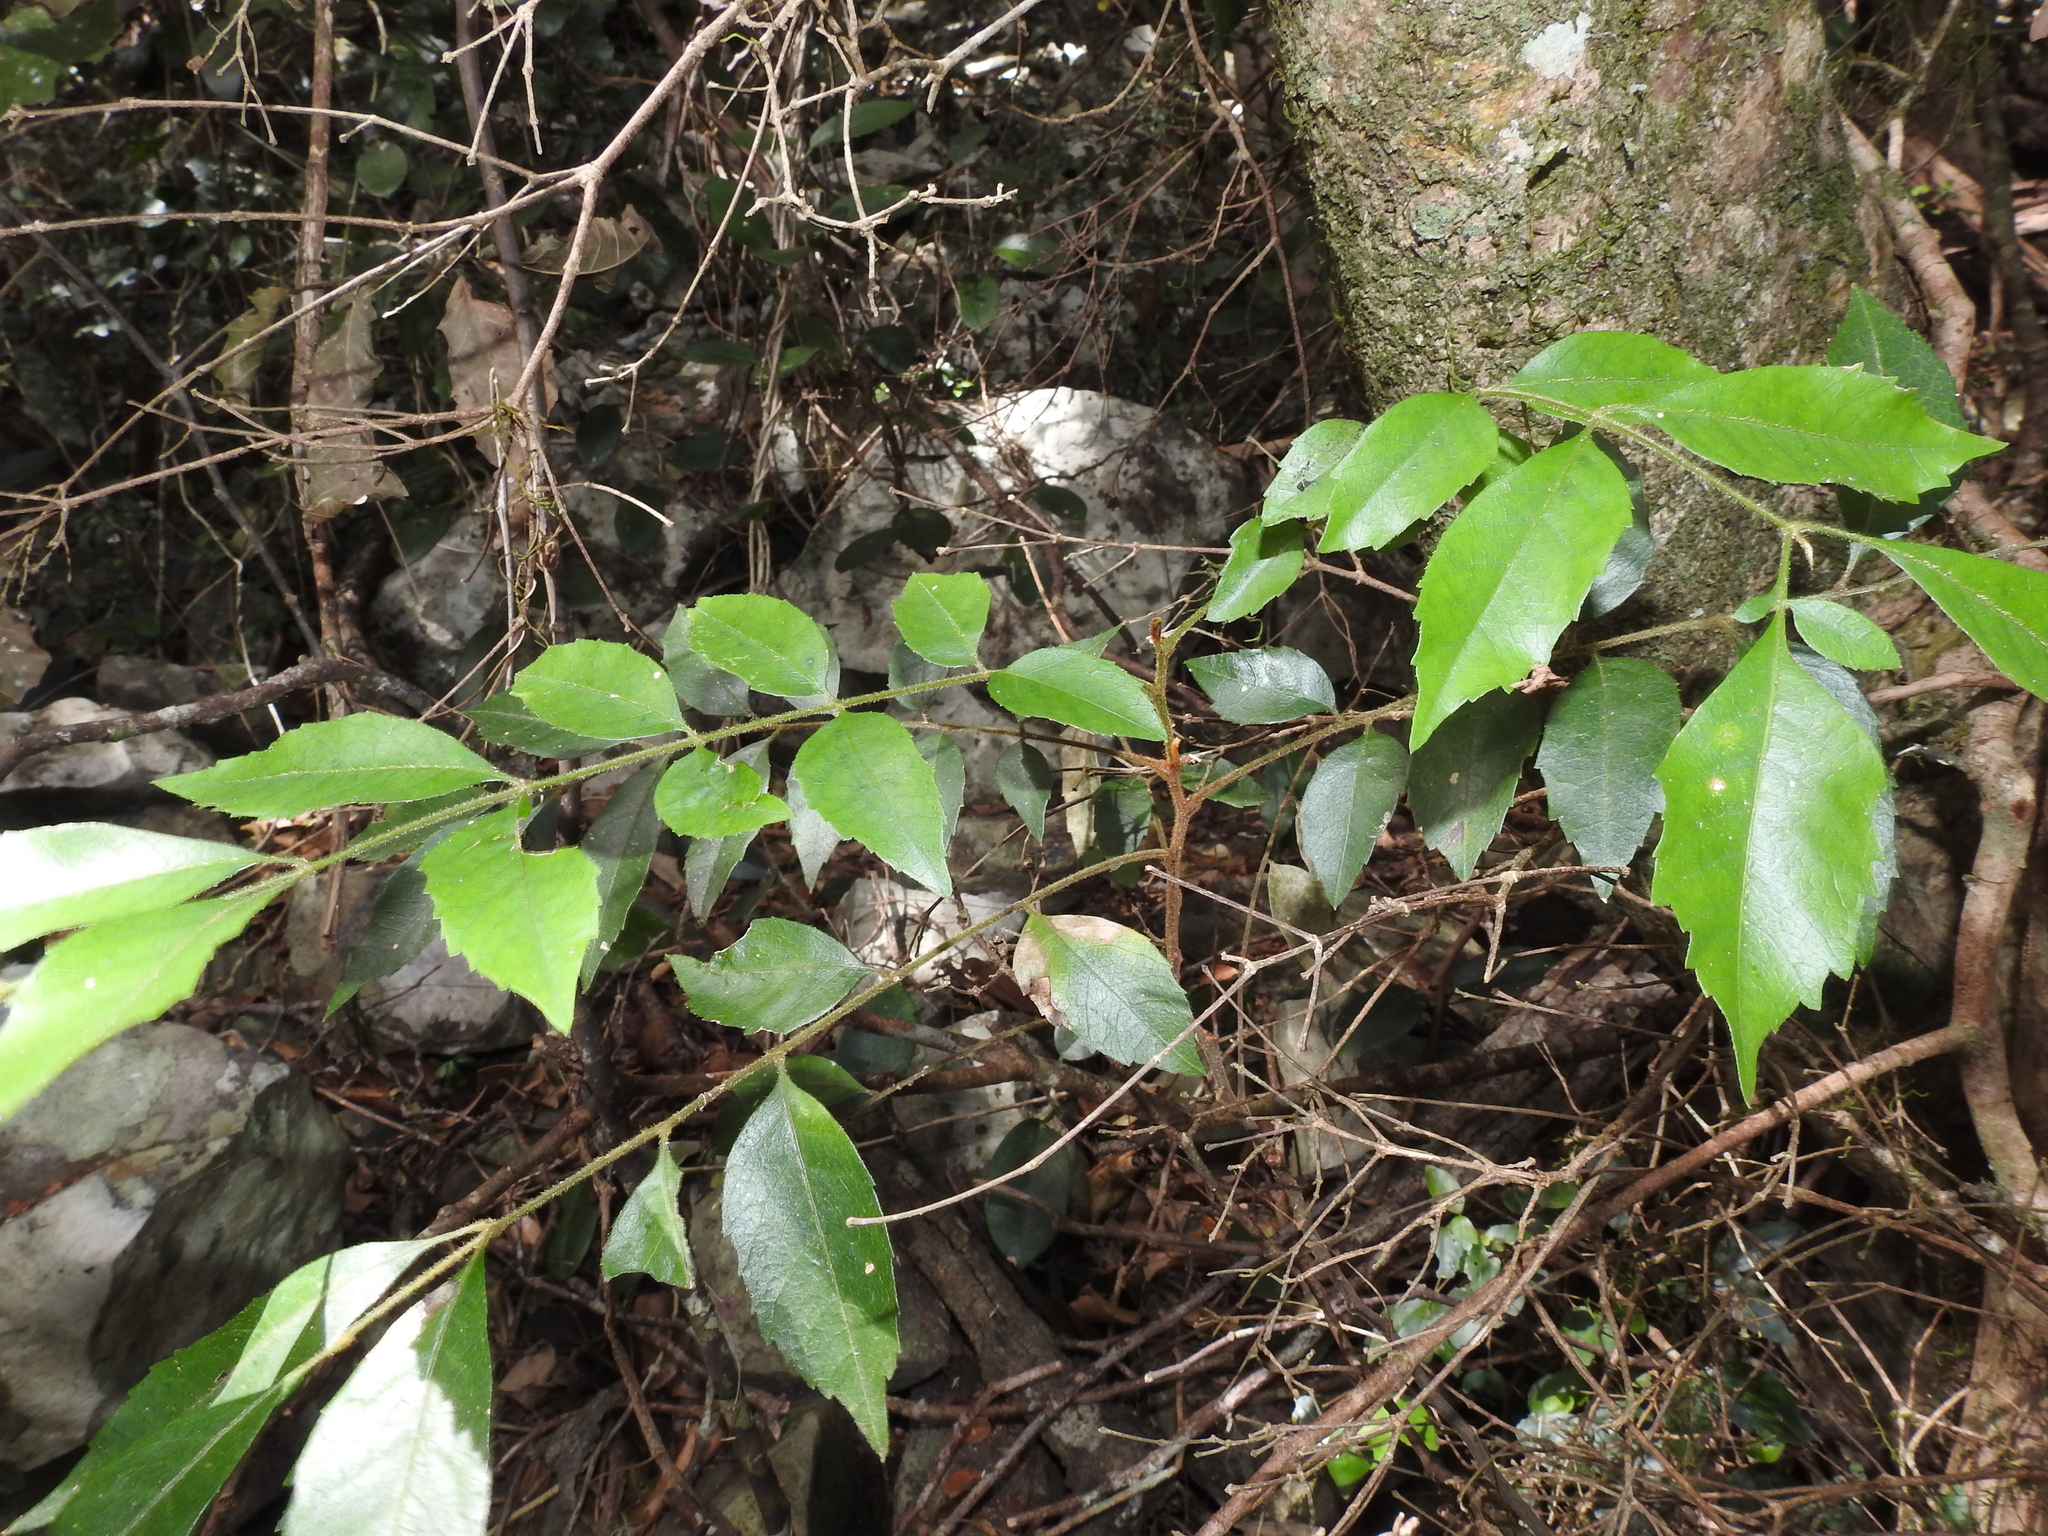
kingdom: Plantae
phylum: Tracheophyta
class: Magnoliopsida
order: Sapindales
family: Sapindaceae
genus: Jagera
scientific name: Jagera pseudorhus
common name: Fern-leaf-tamarind
